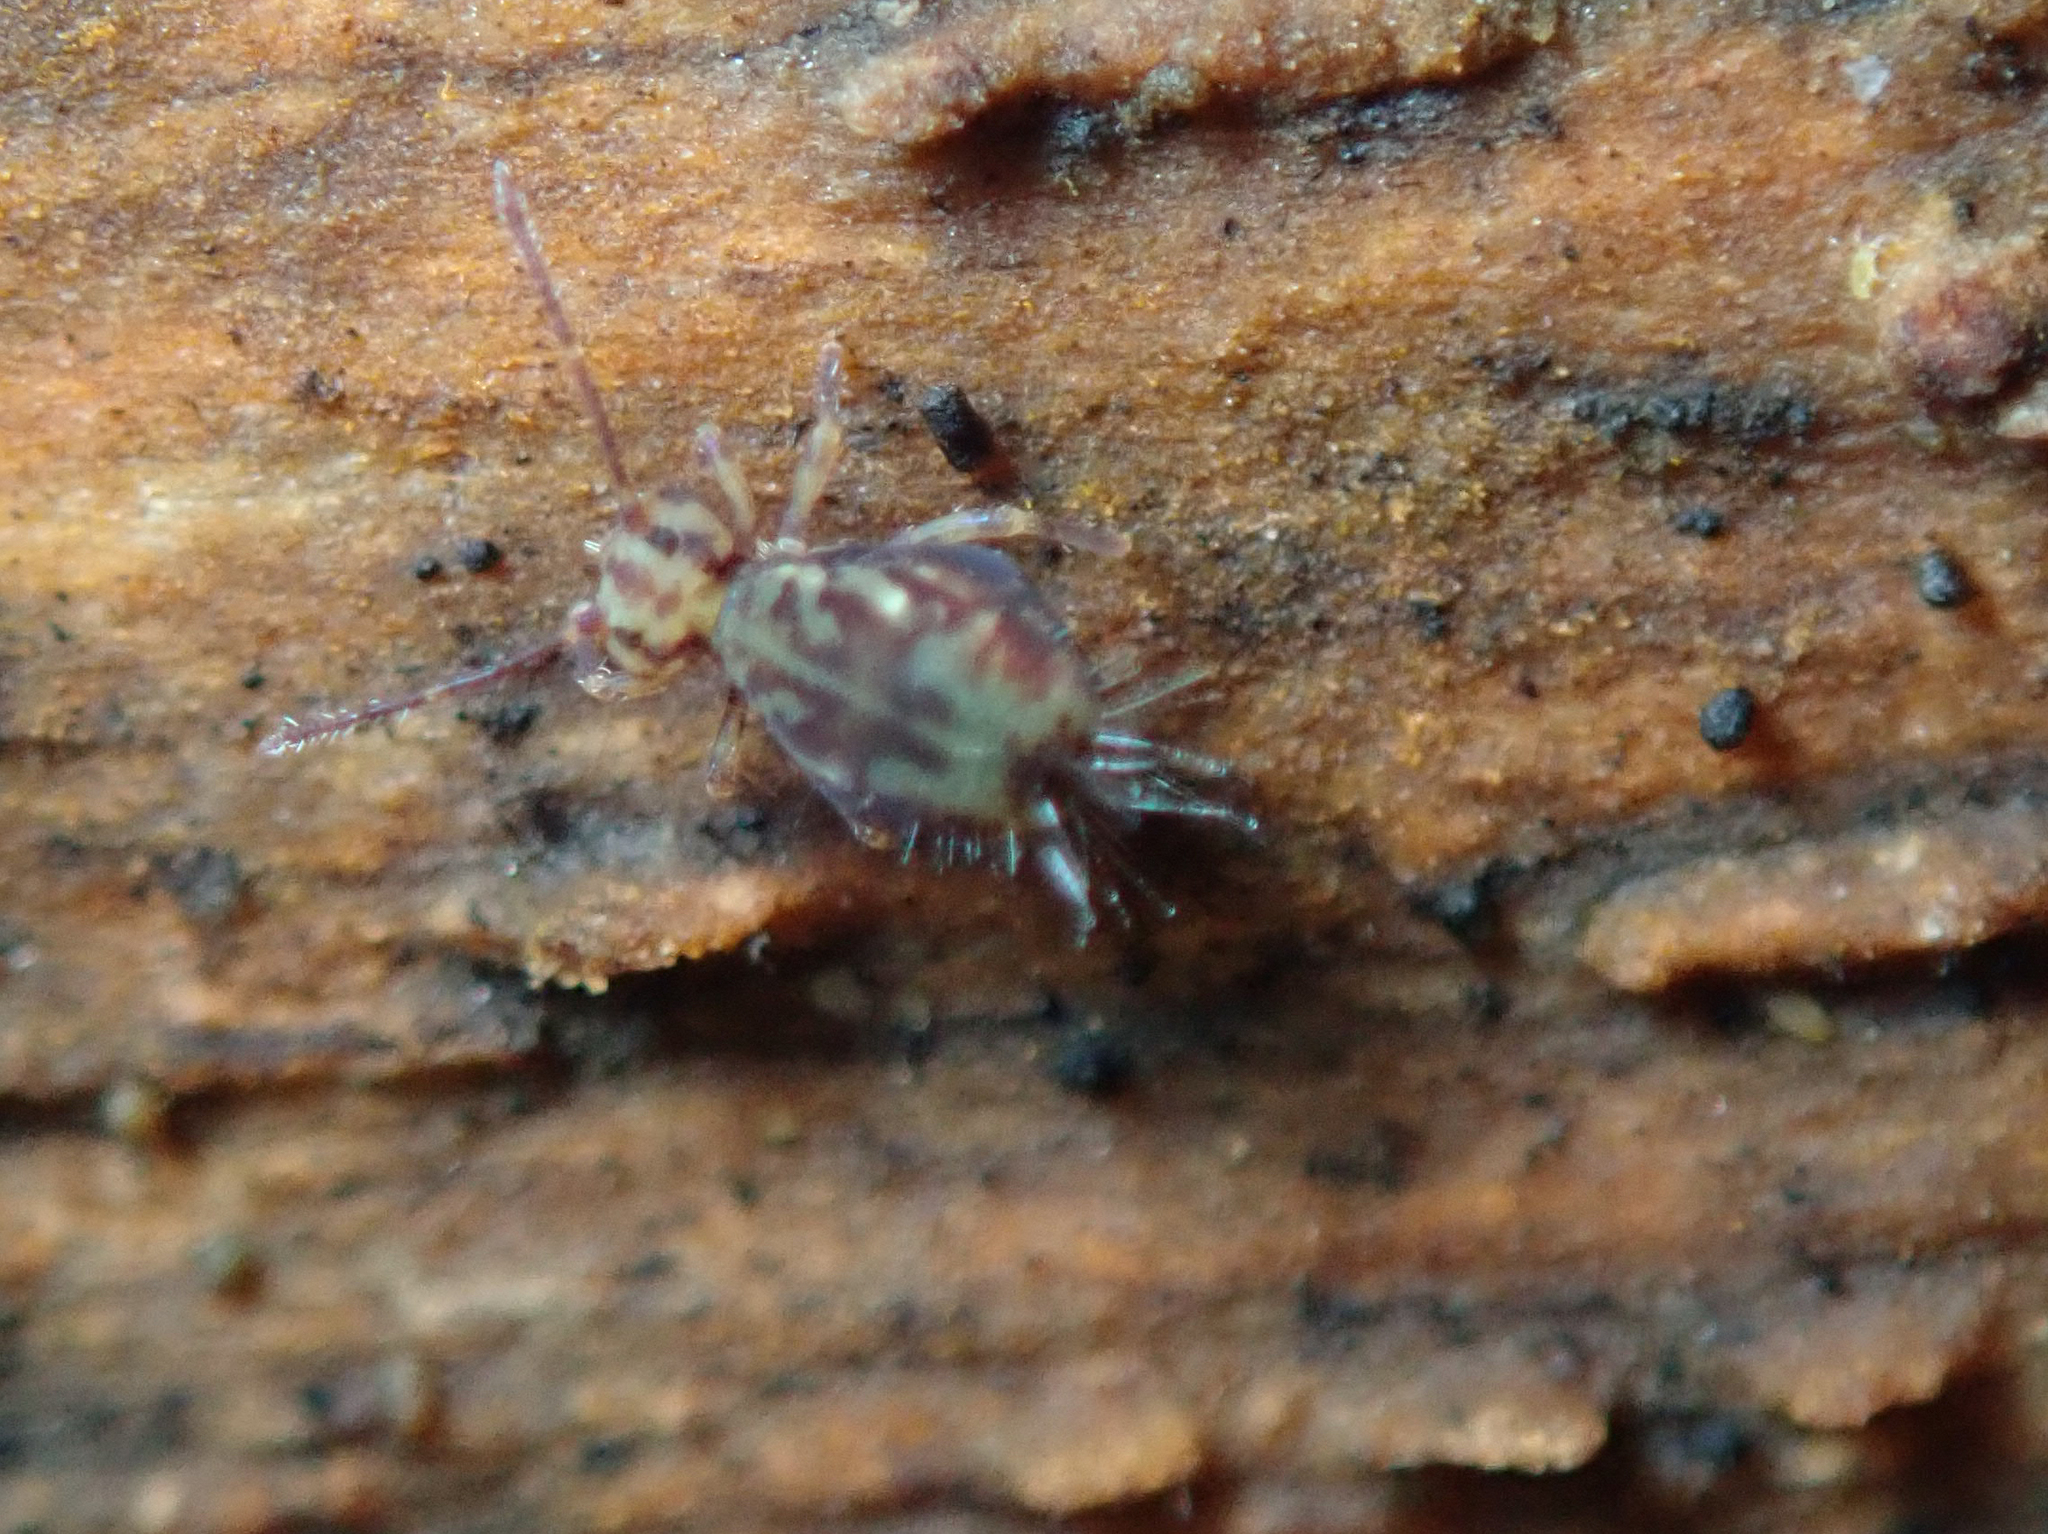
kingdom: Animalia
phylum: Arthropoda
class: Collembola
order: Symphypleona
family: Dicyrtomidae
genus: Dicyrtomina
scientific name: Dicyrtomina saundersi
